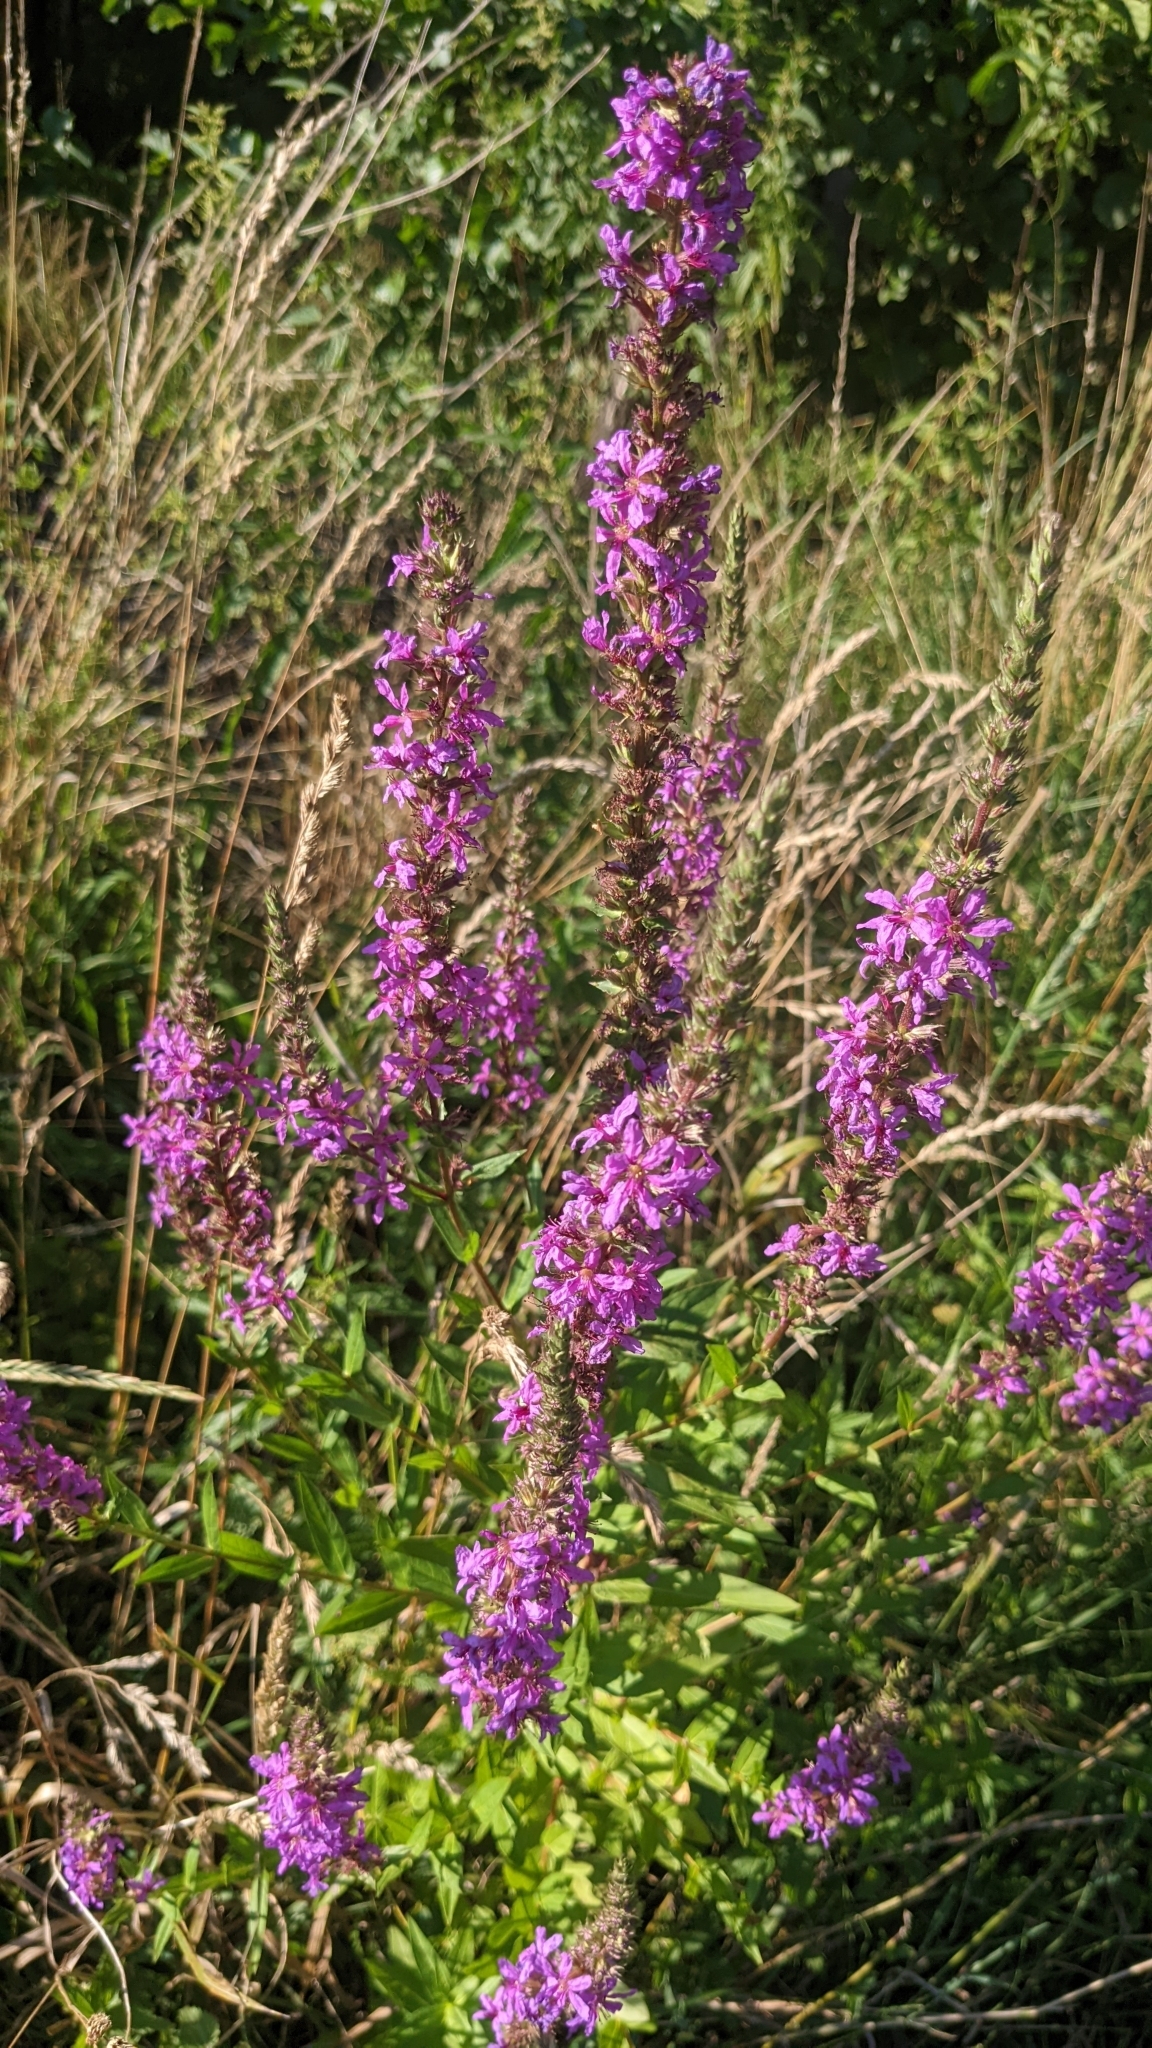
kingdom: Plantae
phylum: Tracheophyta
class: Magnoliopsida
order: Myrtales
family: Lythraceae
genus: Lythrum
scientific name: Lythrum salicaria
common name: Purple loosestrife
